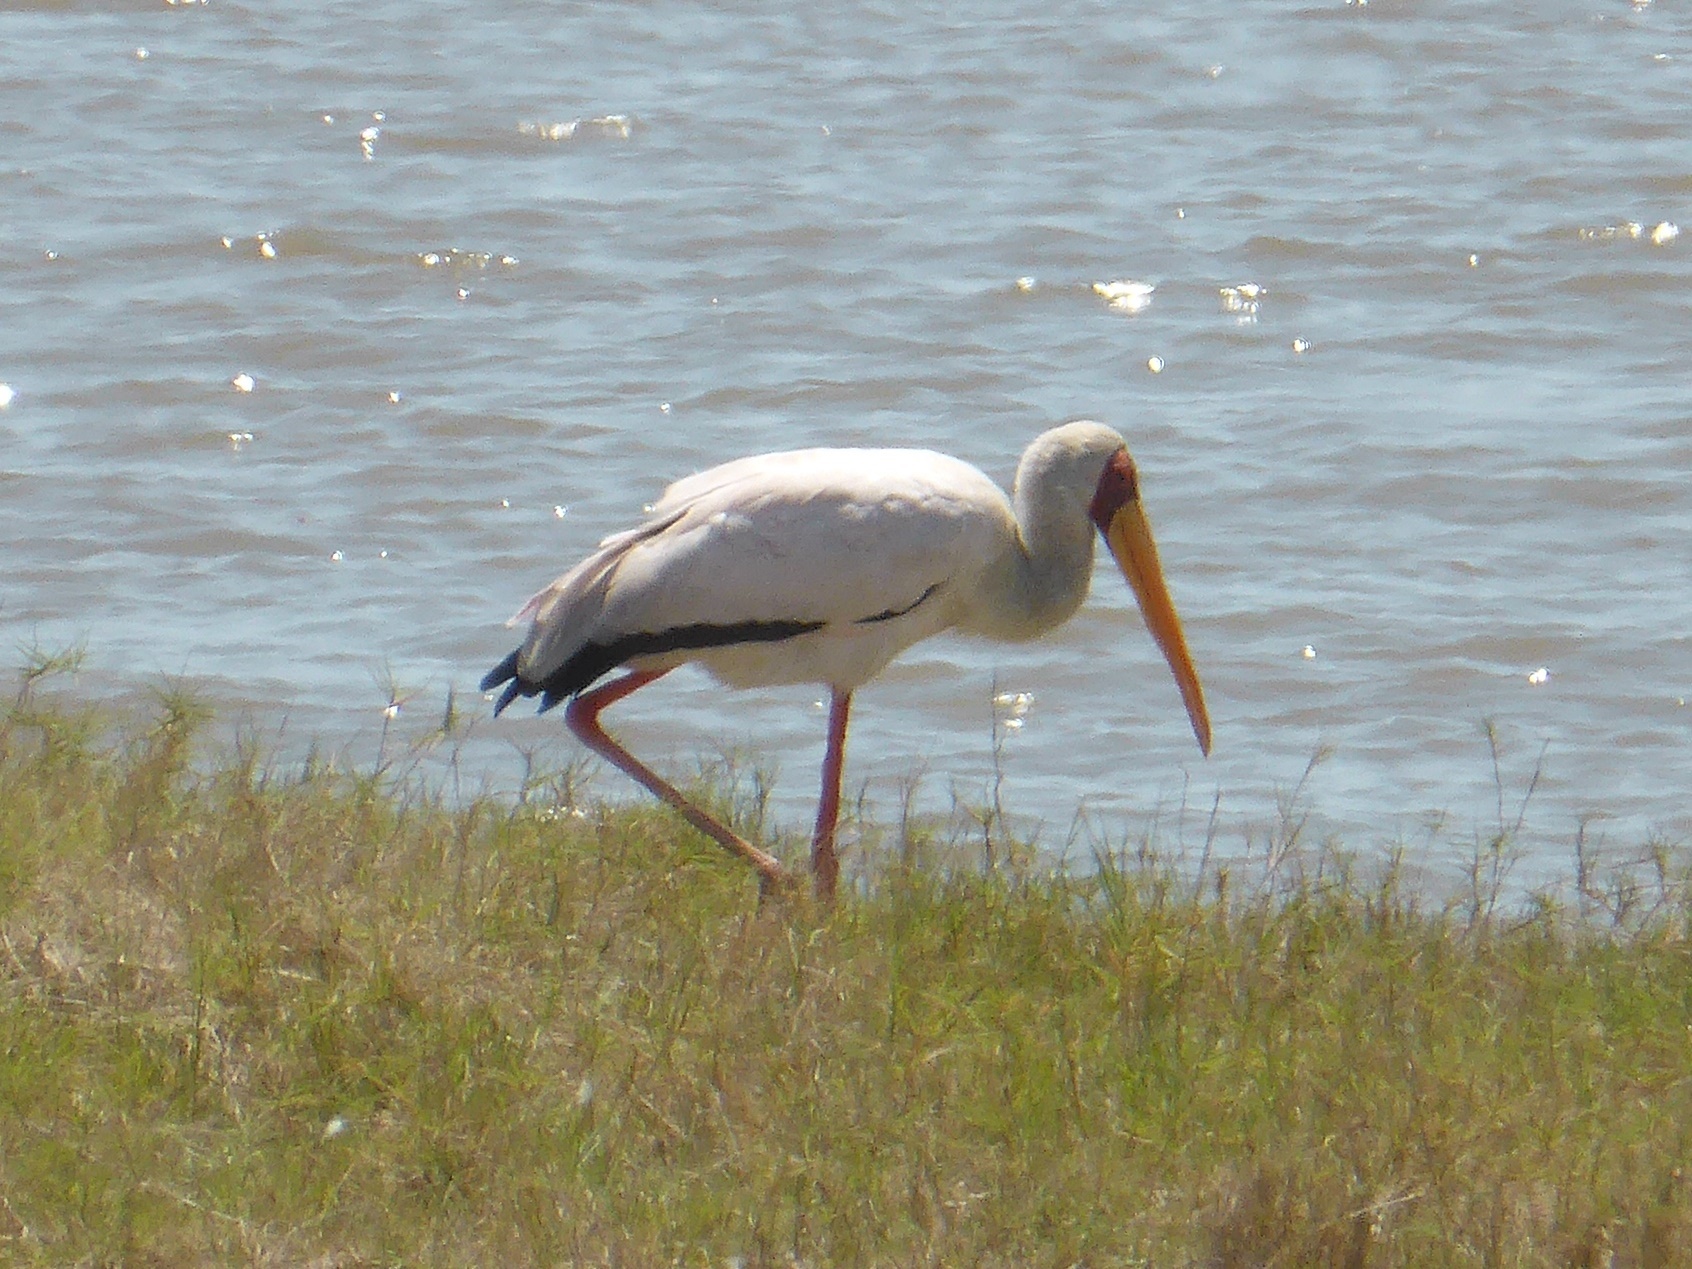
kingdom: Animalia
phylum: Chordata
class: Aves
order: Ciconiiformes
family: Ciconiidae
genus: Mycteria
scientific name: Mycteria ibis
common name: Yellow-billed stork
